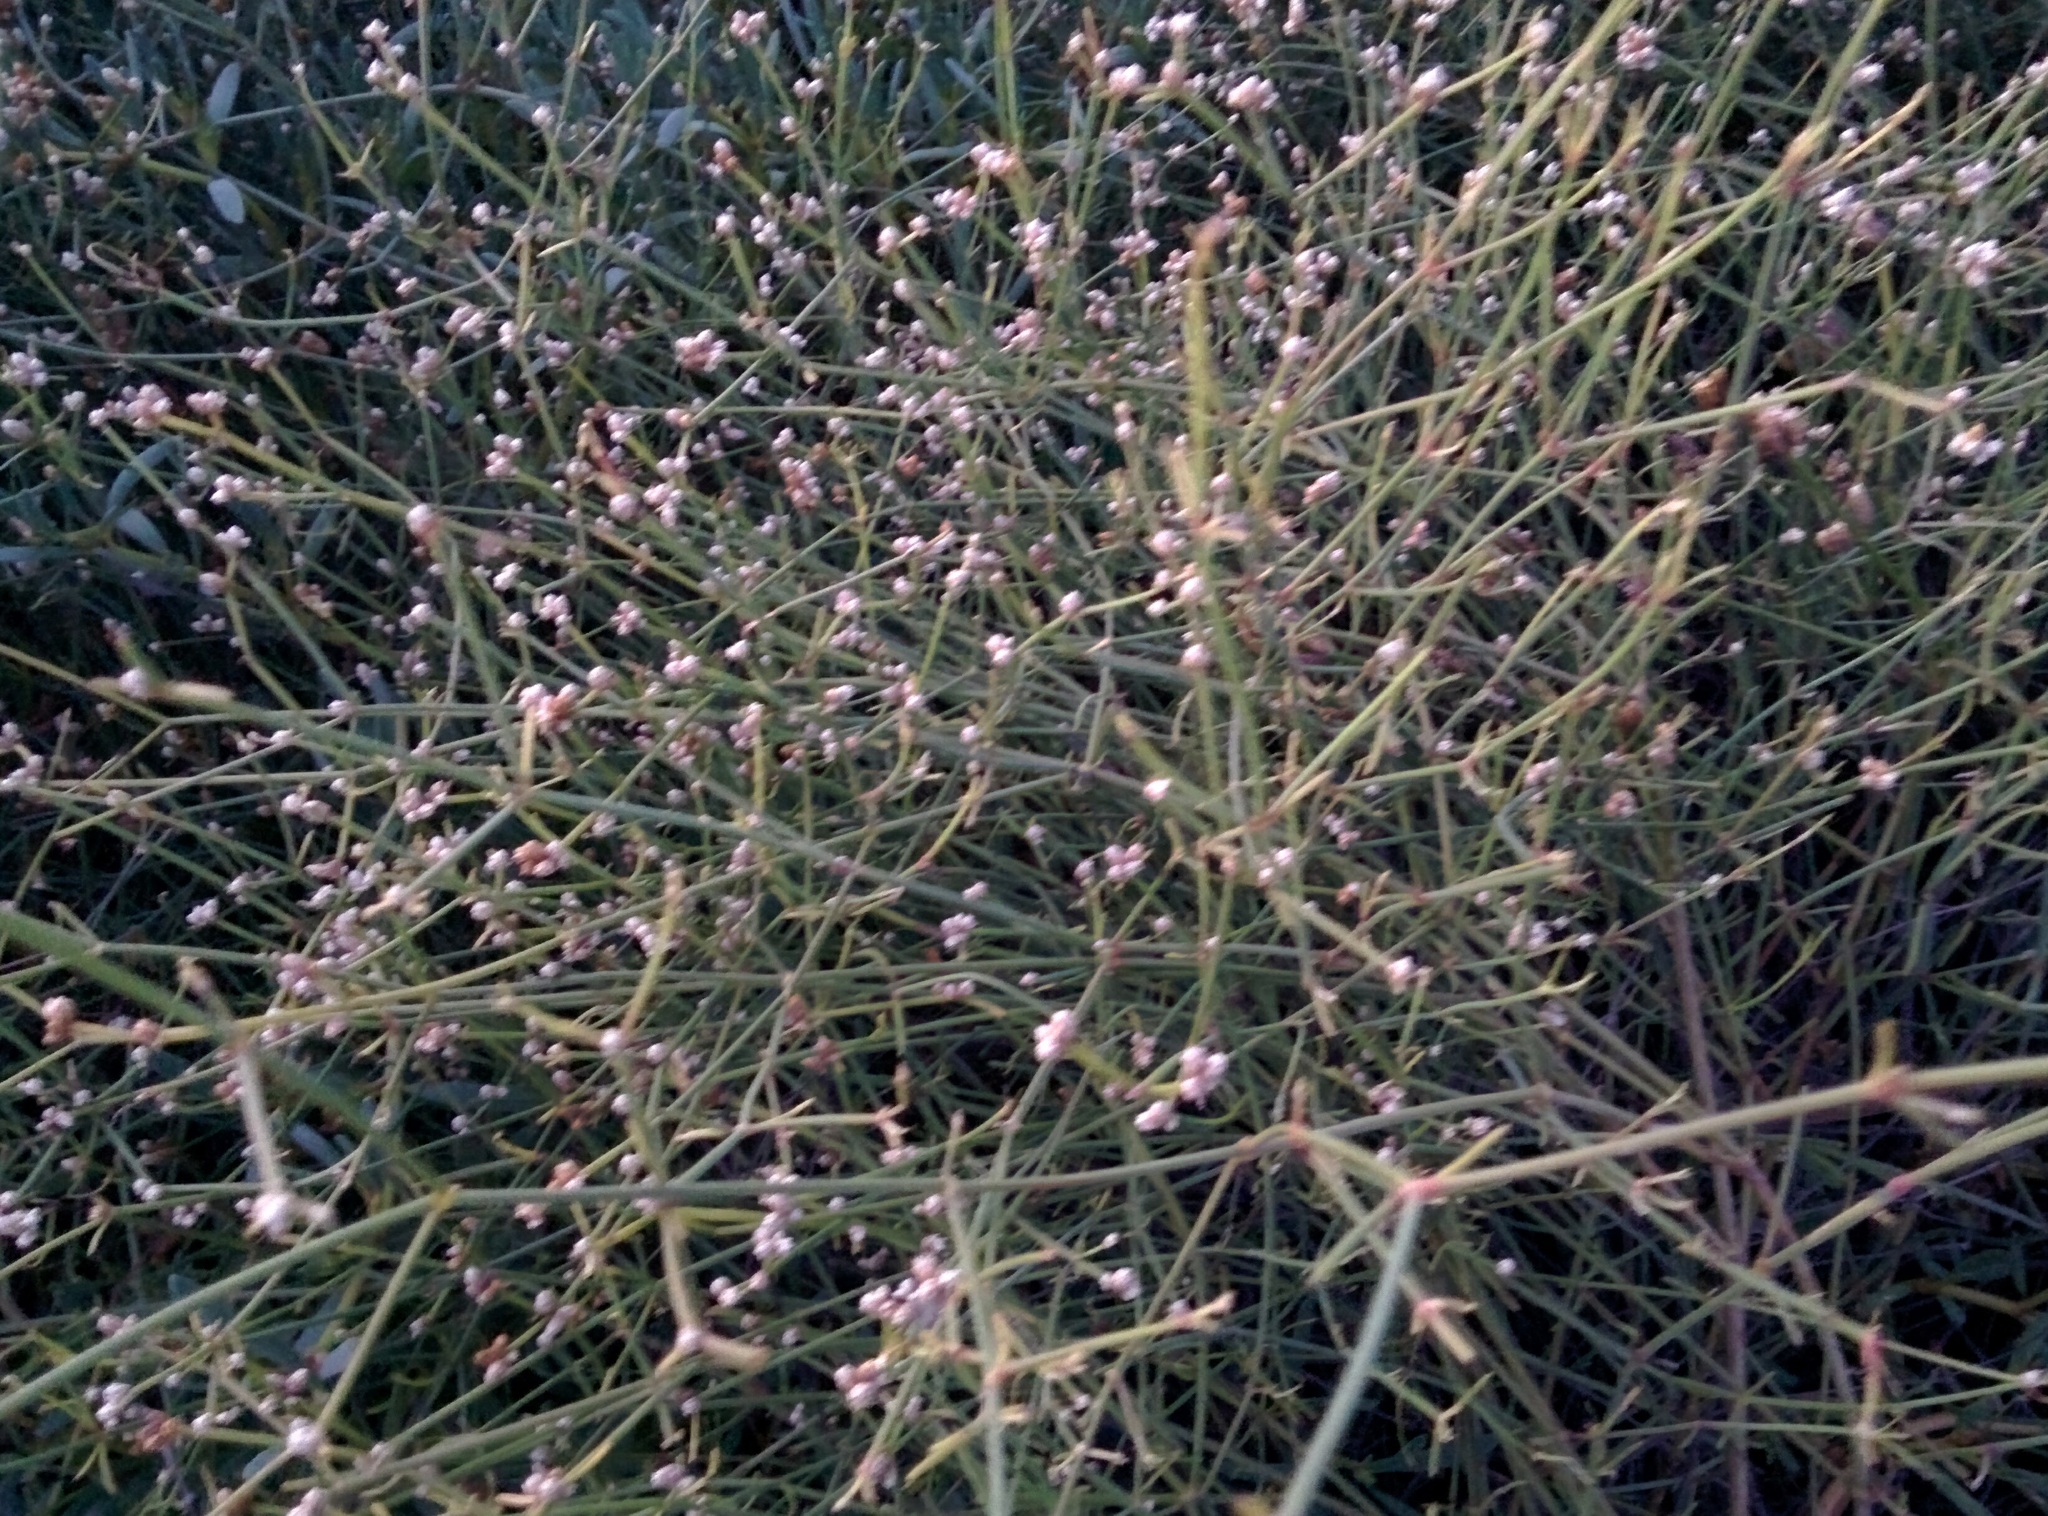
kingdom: Plantae
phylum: Tracheophyta
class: Magnoliopsida
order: Caryophyllales
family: Amaranthaceae
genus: Alternanthera
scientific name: Alternanthera filifolia
